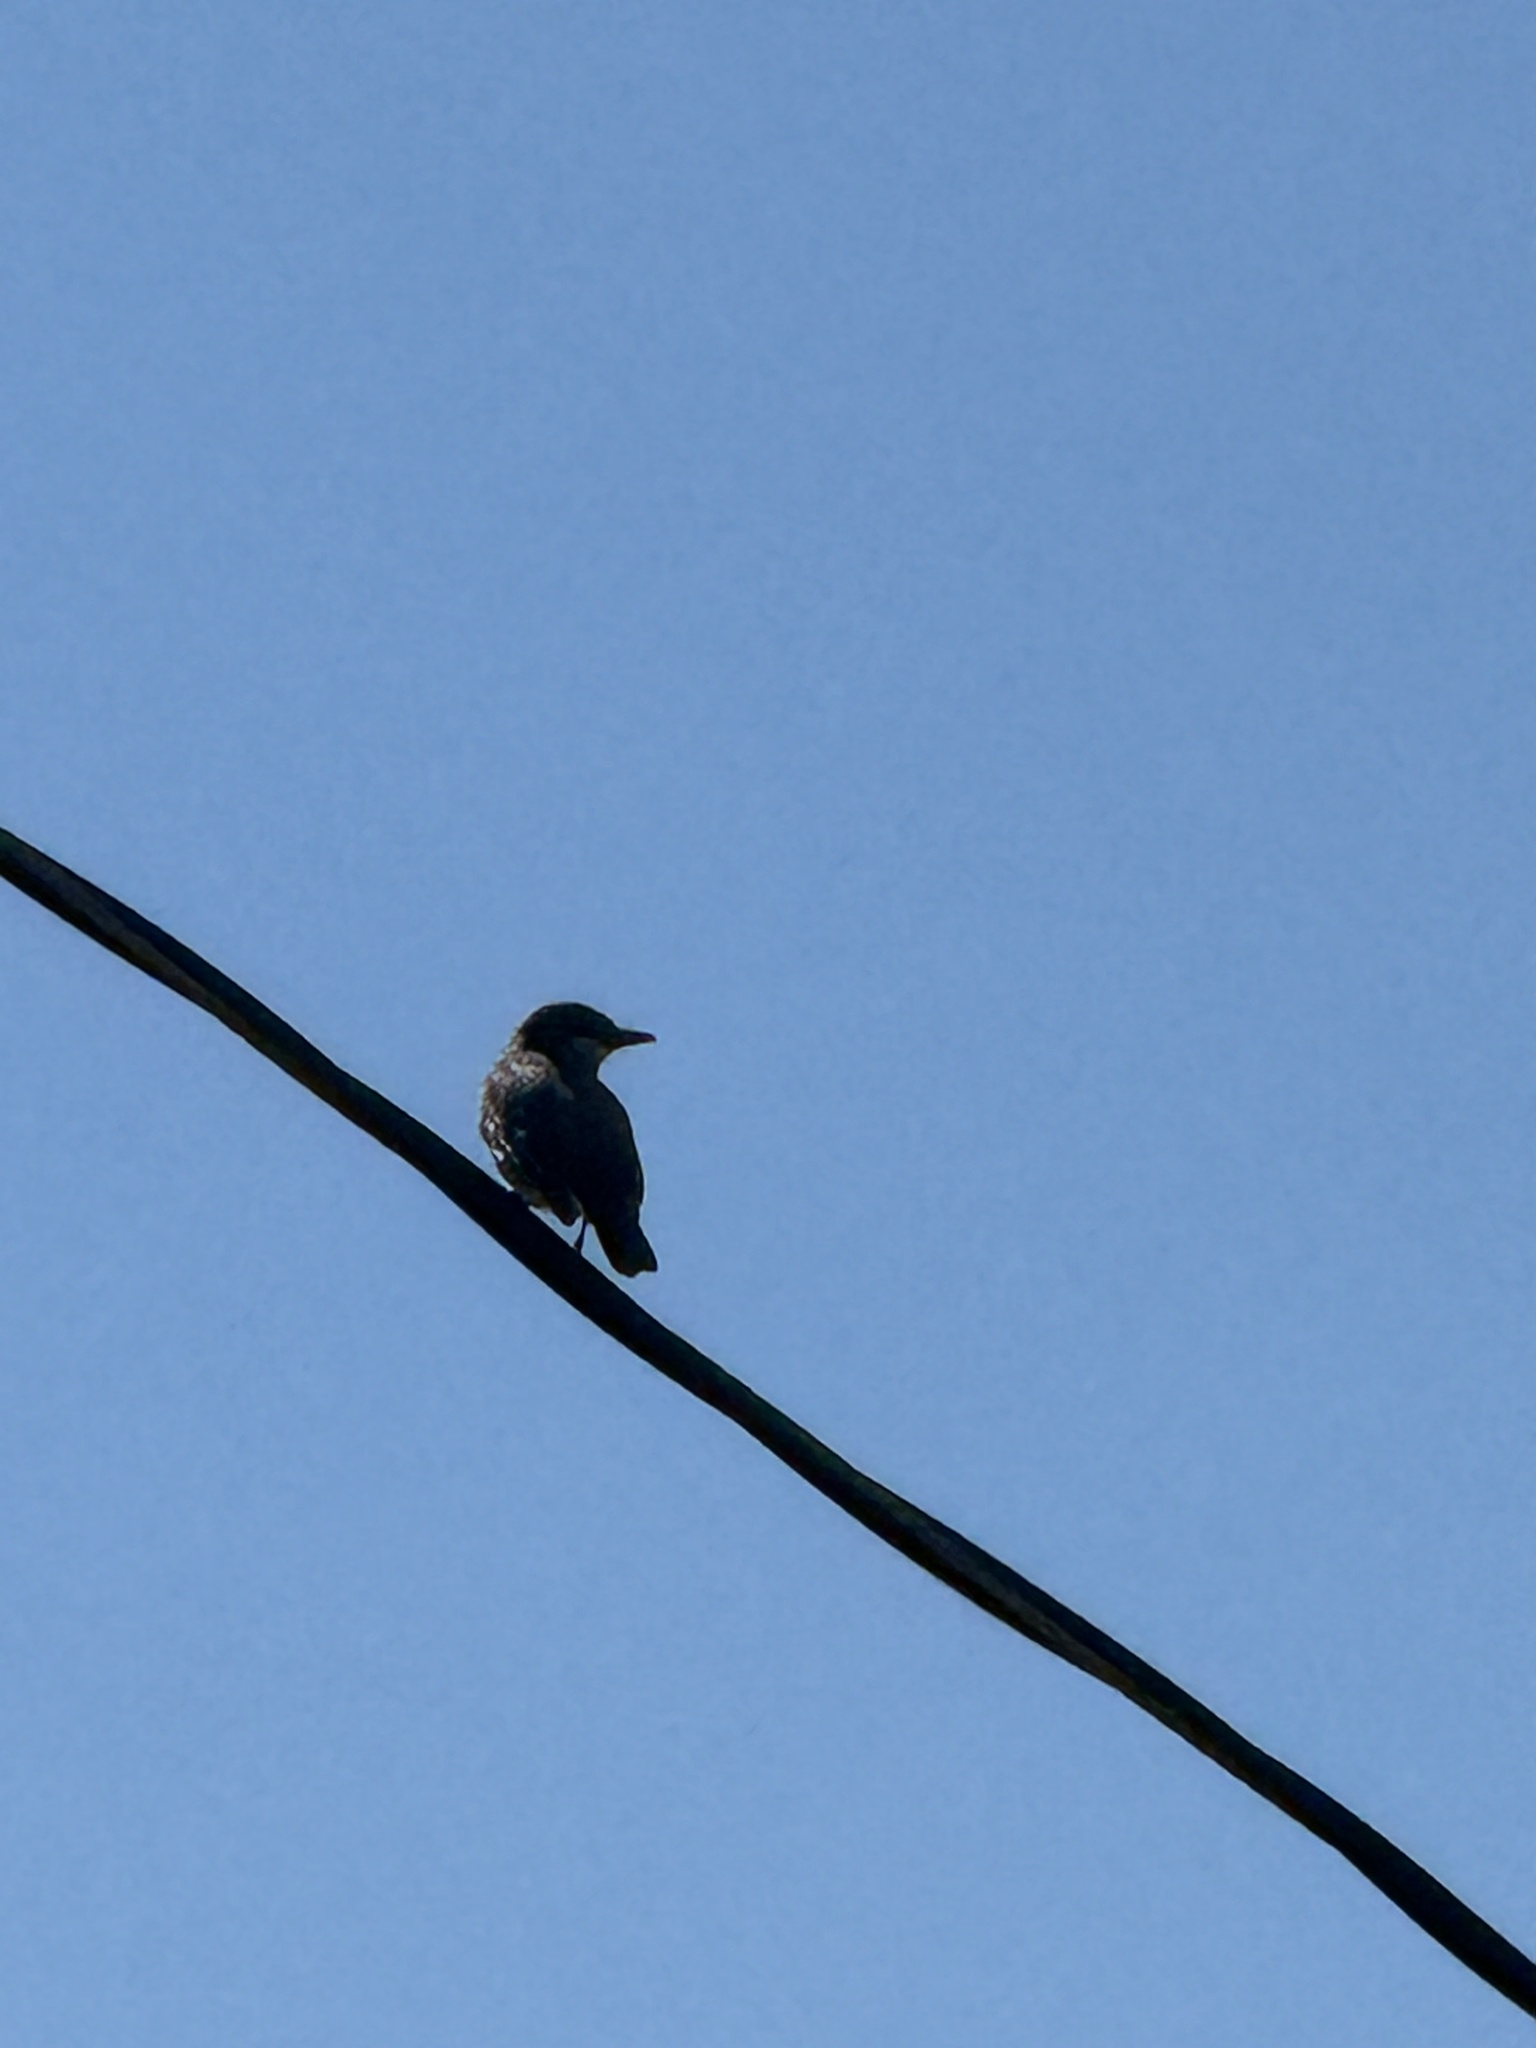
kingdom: Animalia
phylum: Chordata
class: Aves
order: Passeriformes
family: Tyrannidae
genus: Tyrannus
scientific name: Tyrannus vociferans
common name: Cassin's kingbird
